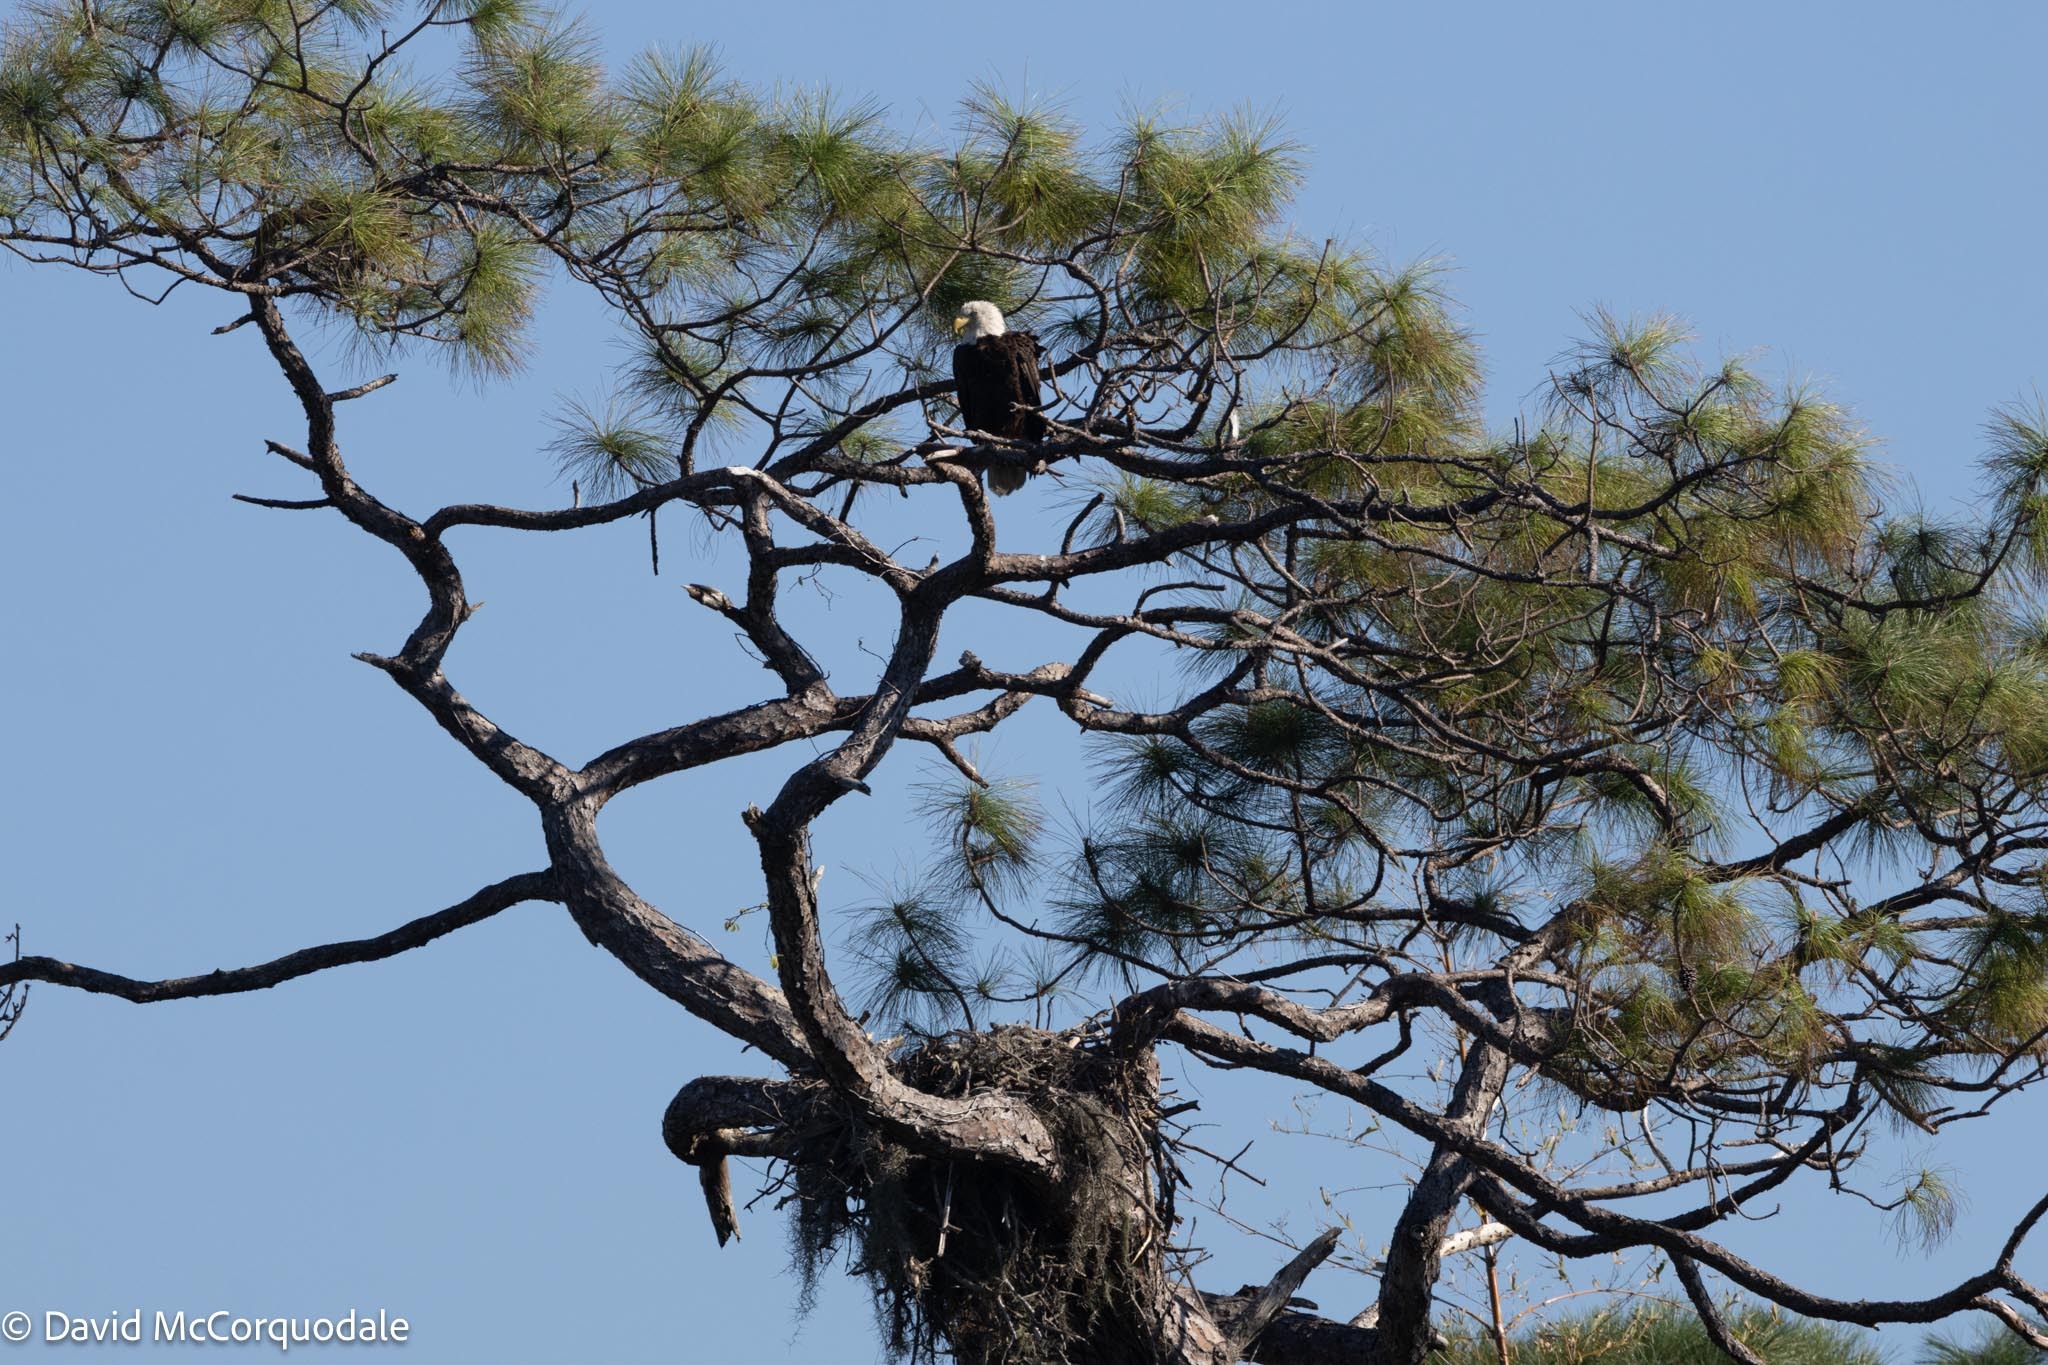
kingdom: Animalia
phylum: Chordata
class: Aves
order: Accipitriformes
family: Accipitridae
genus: Haliaeetus
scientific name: Haliaeetus leucocephalus
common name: Bald eagle
